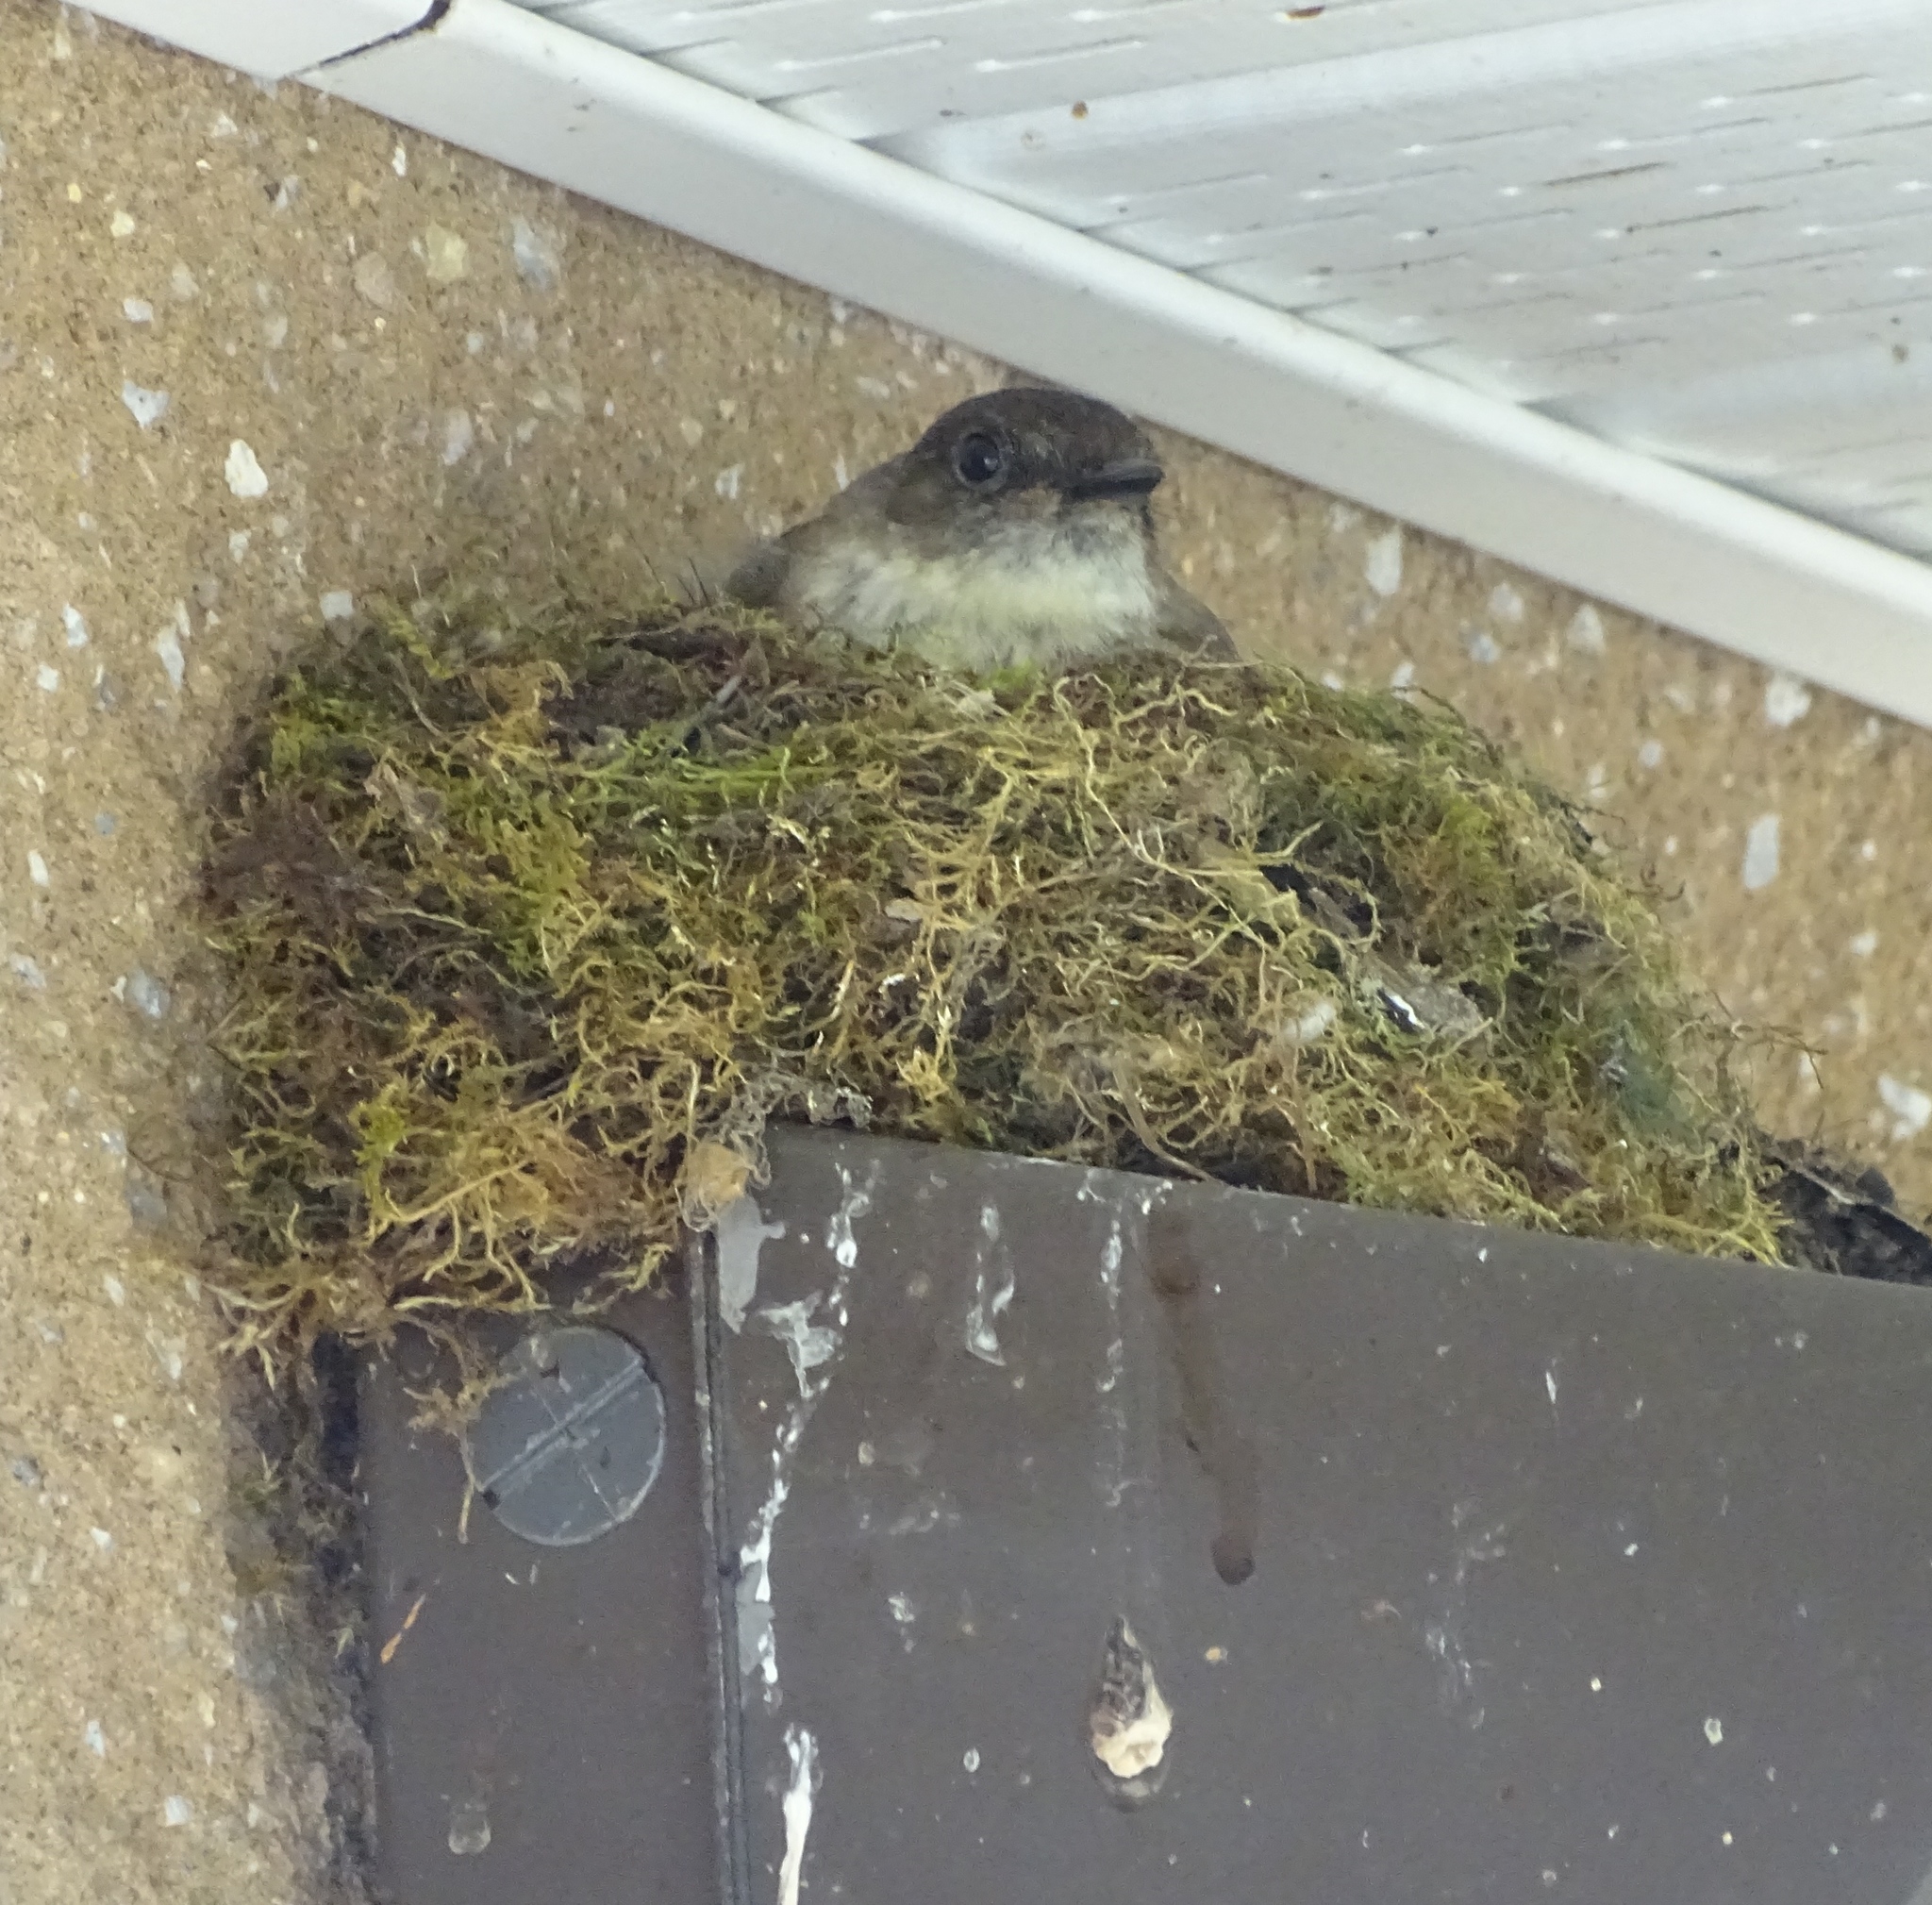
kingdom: Animalia
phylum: Chordata
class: Aves
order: Passeriformes
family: Tyrannidae
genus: Sayornis
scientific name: Sayornis phoebe
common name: Eastern phoebe
